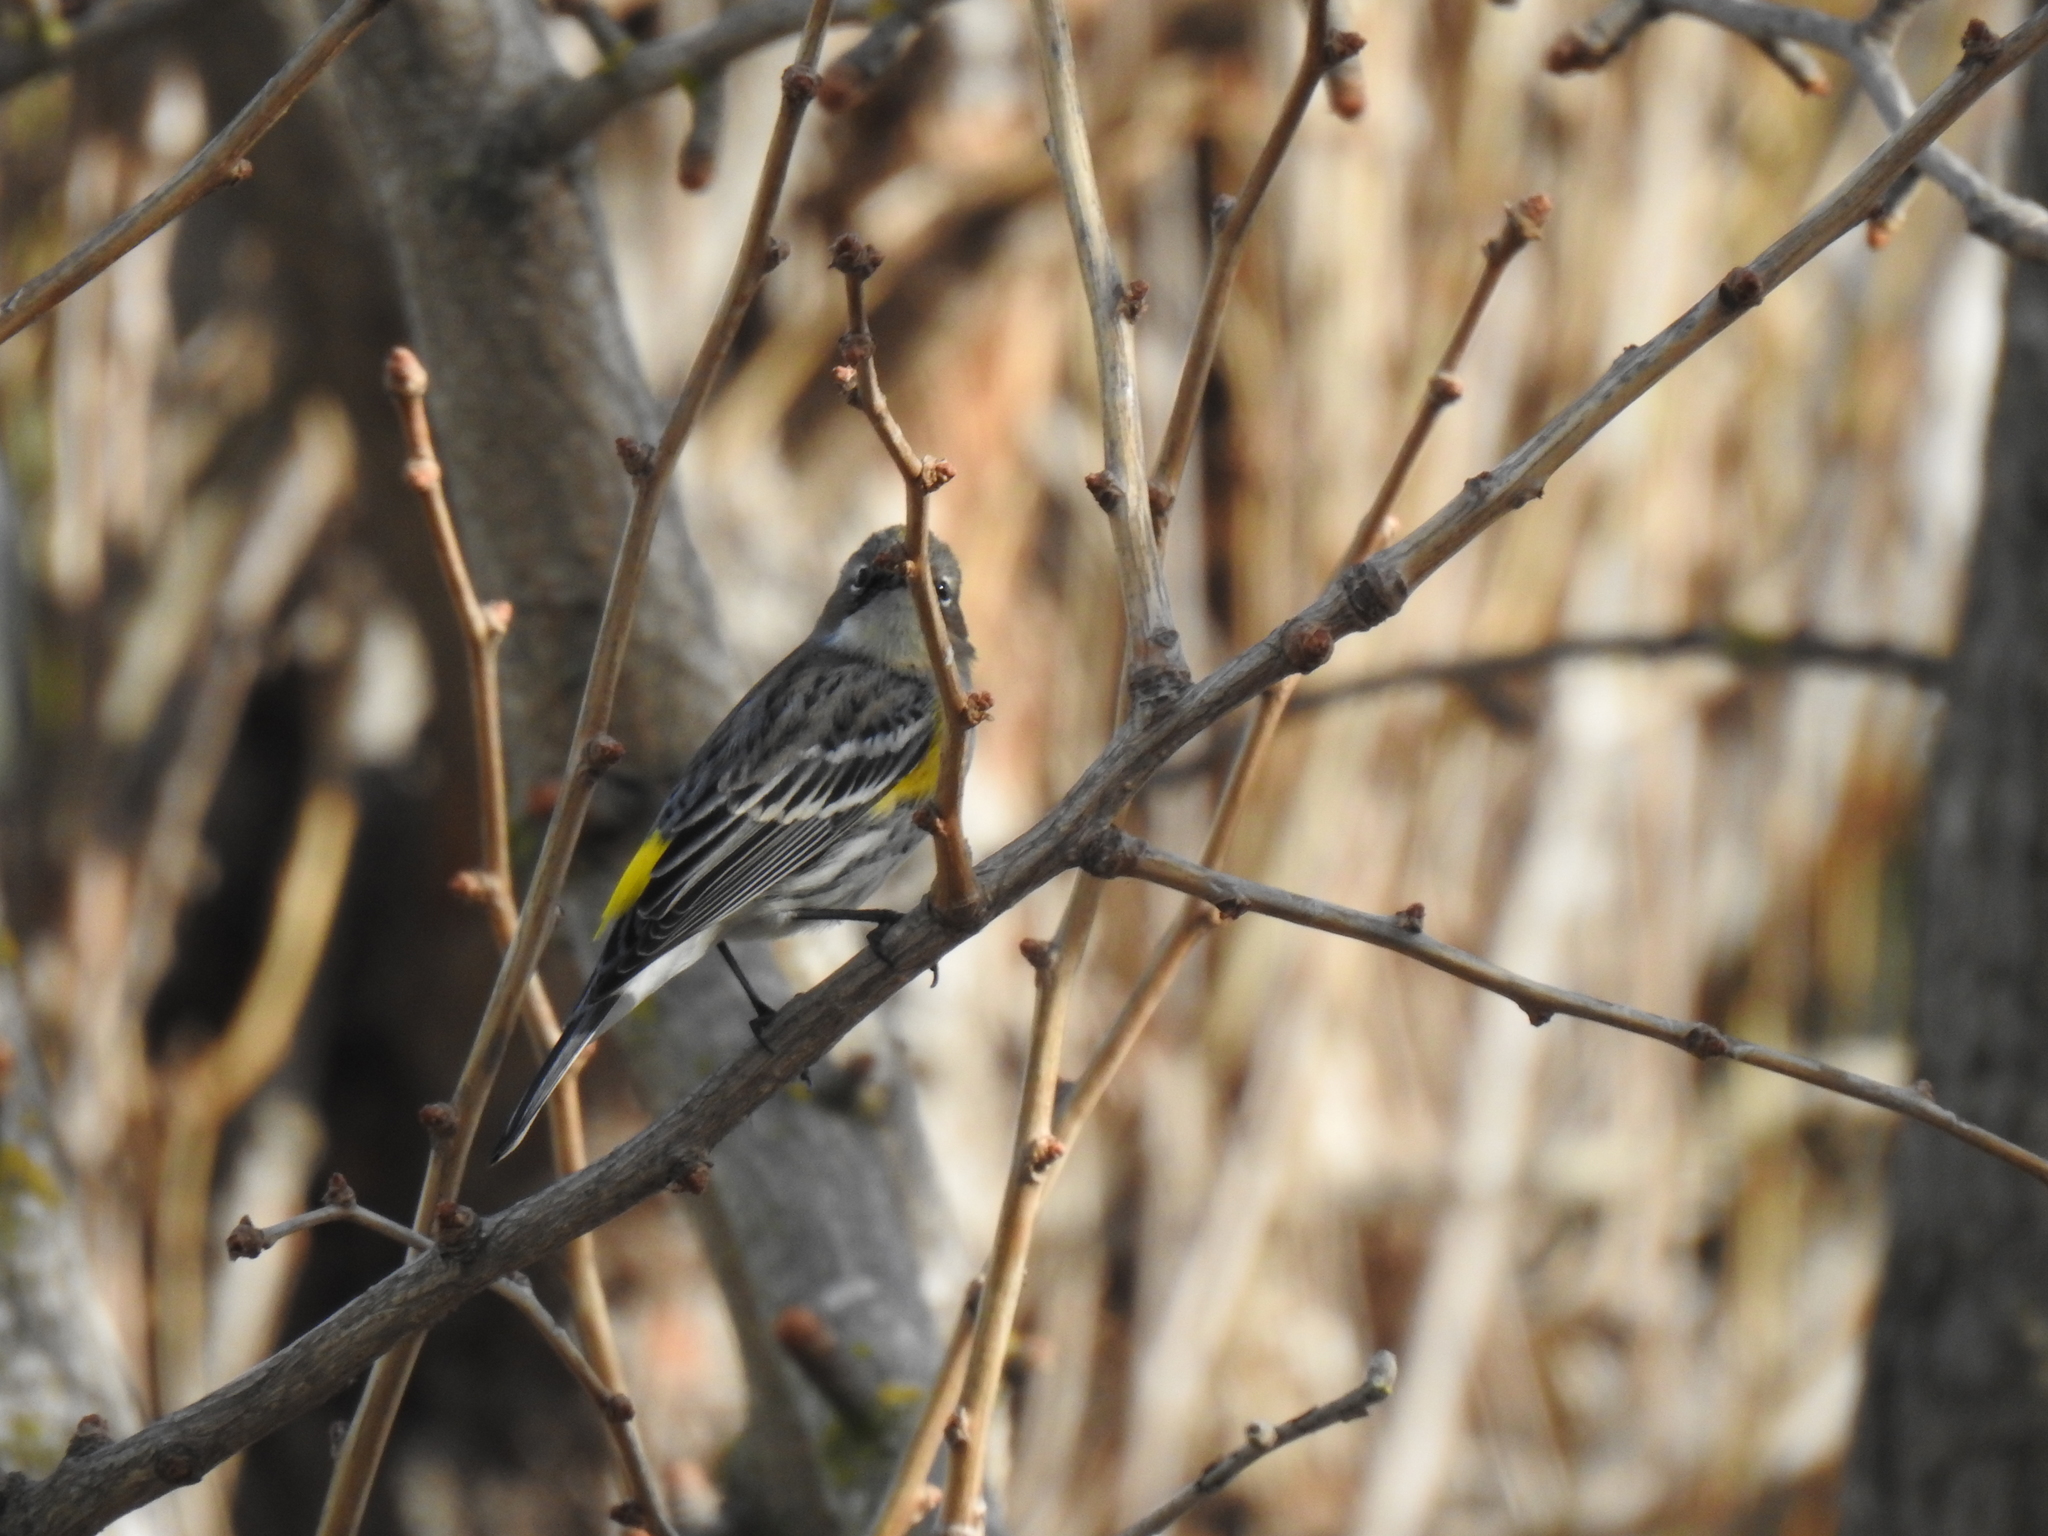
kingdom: Animalia
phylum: Chordata
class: Aves
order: Passeriformes
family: Parulidae
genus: Setophaga
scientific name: Setophaga coronata
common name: Myrtle warbler
